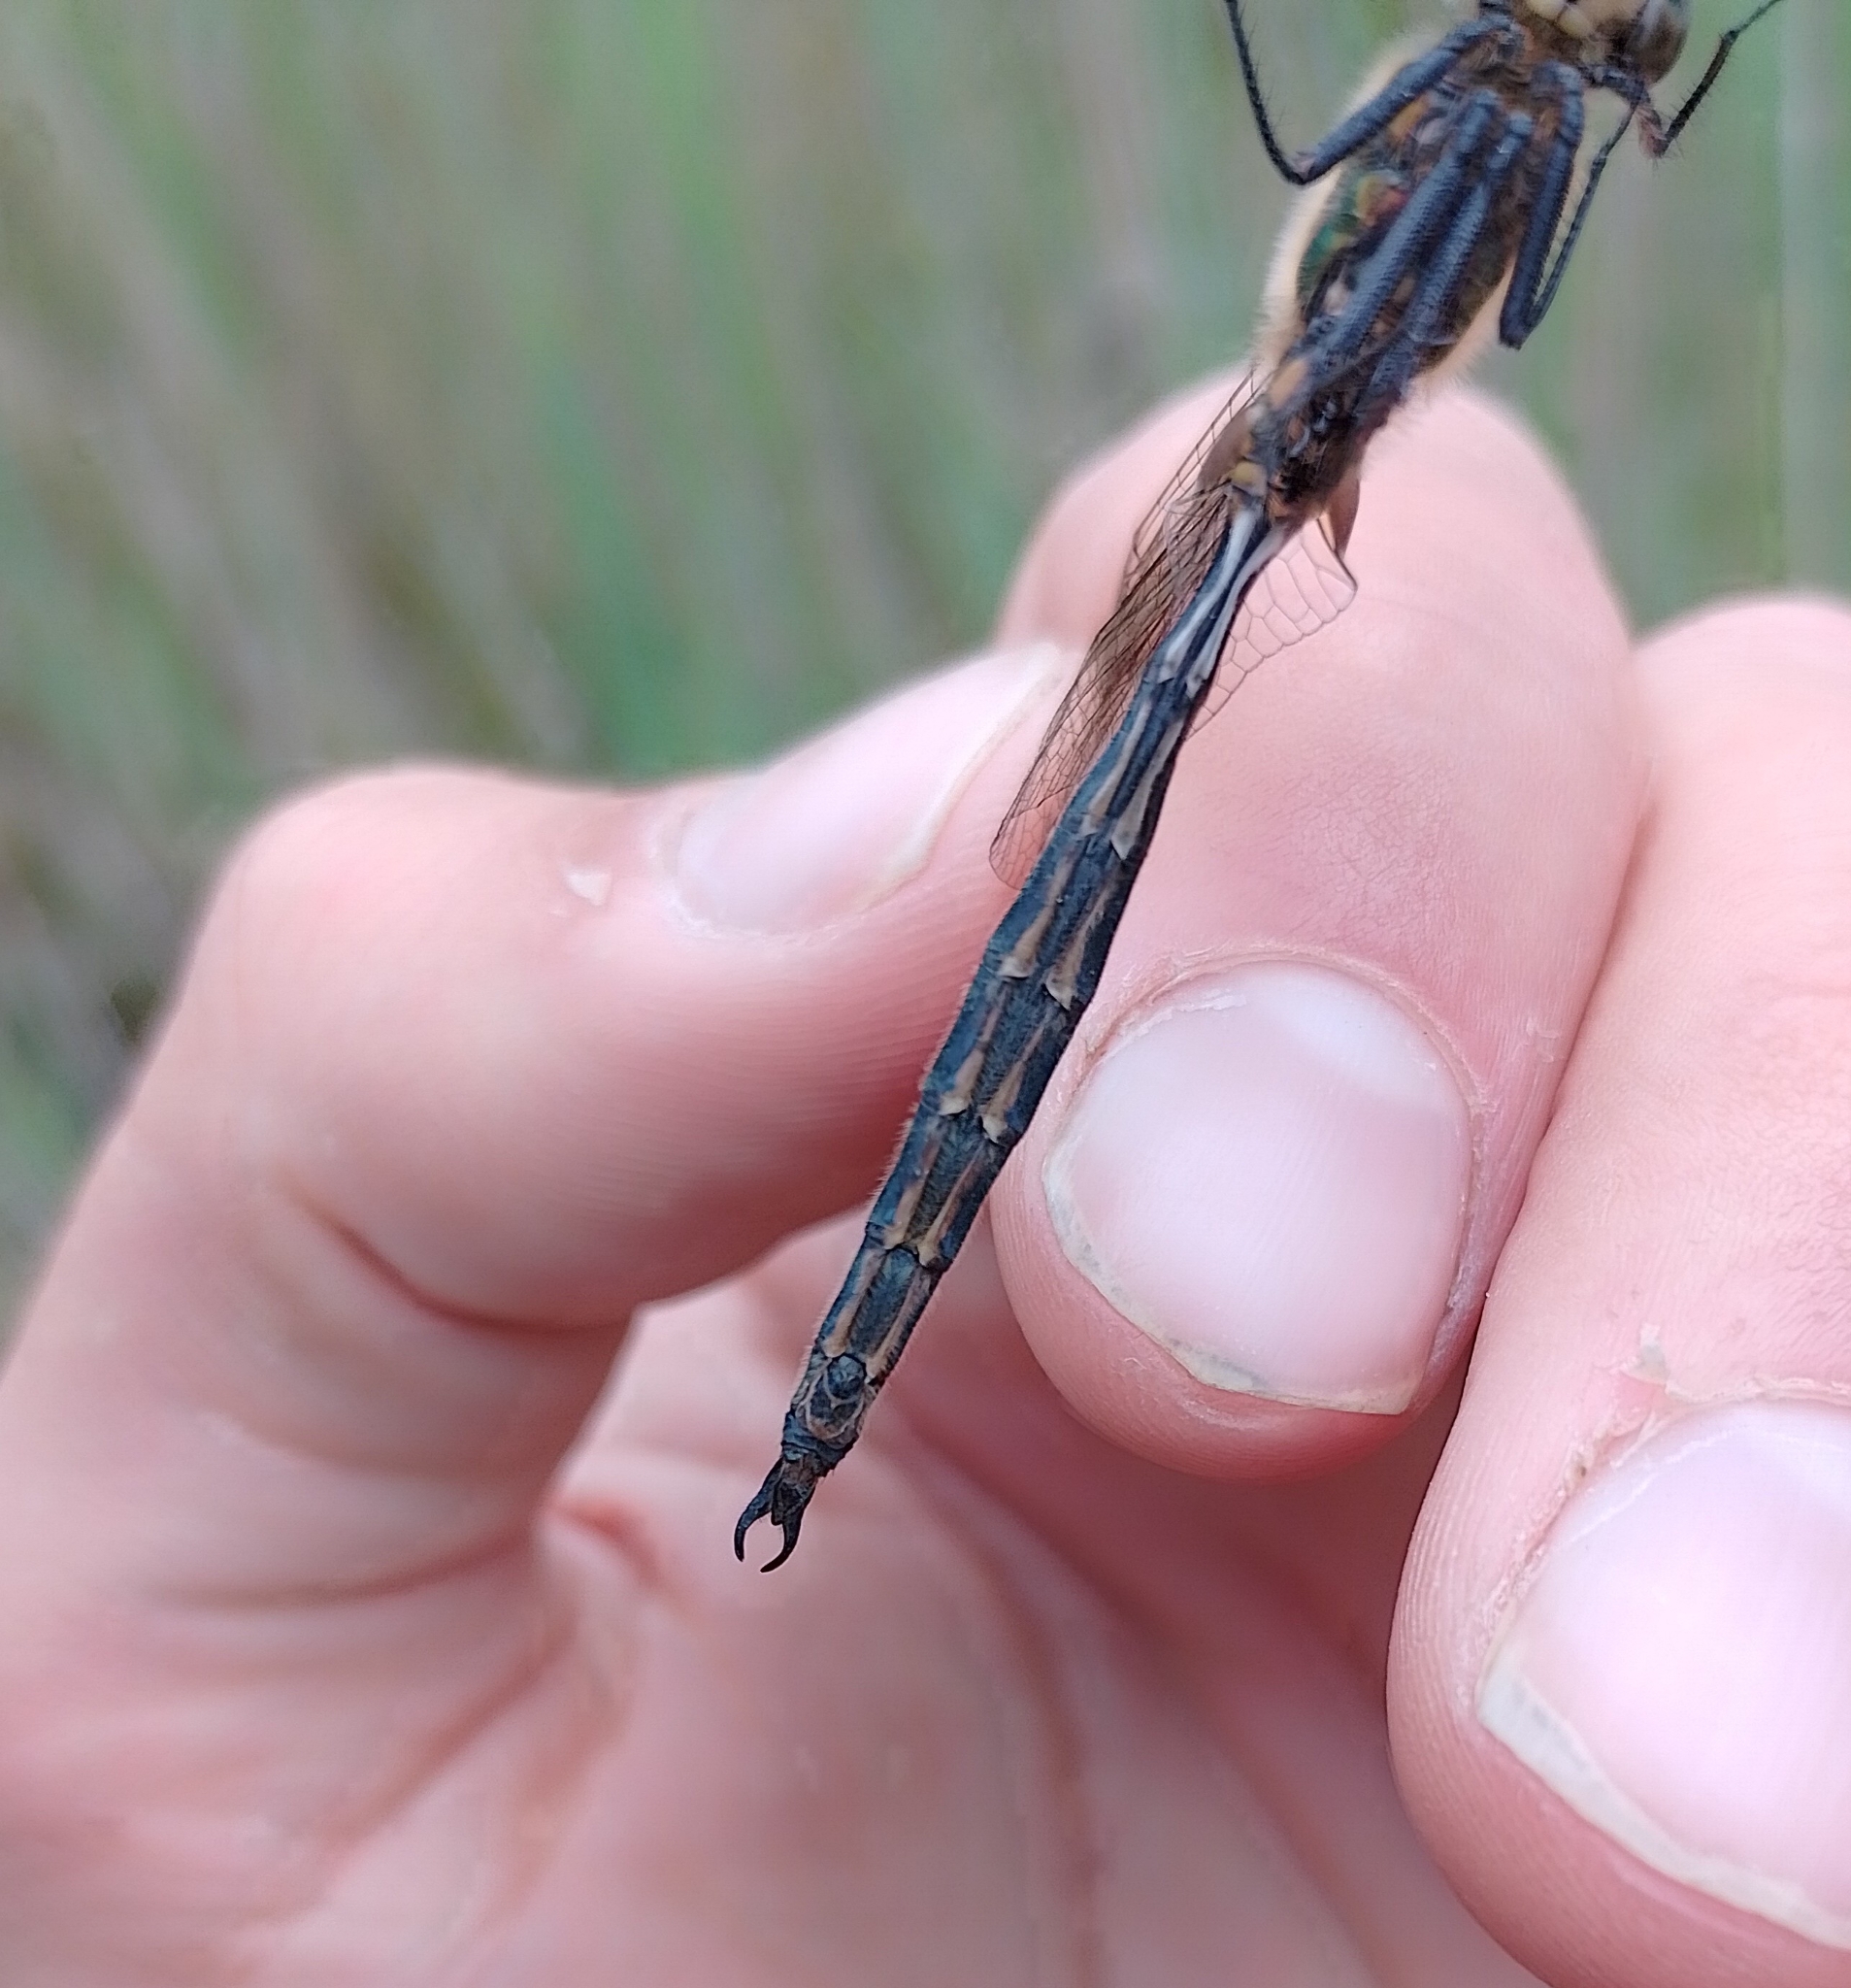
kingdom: Animalia
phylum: Arthropoda
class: Insecta
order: Odonata
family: Corduliidae
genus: Somatochlora
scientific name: Somatochlora arctica
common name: Northern emerald
